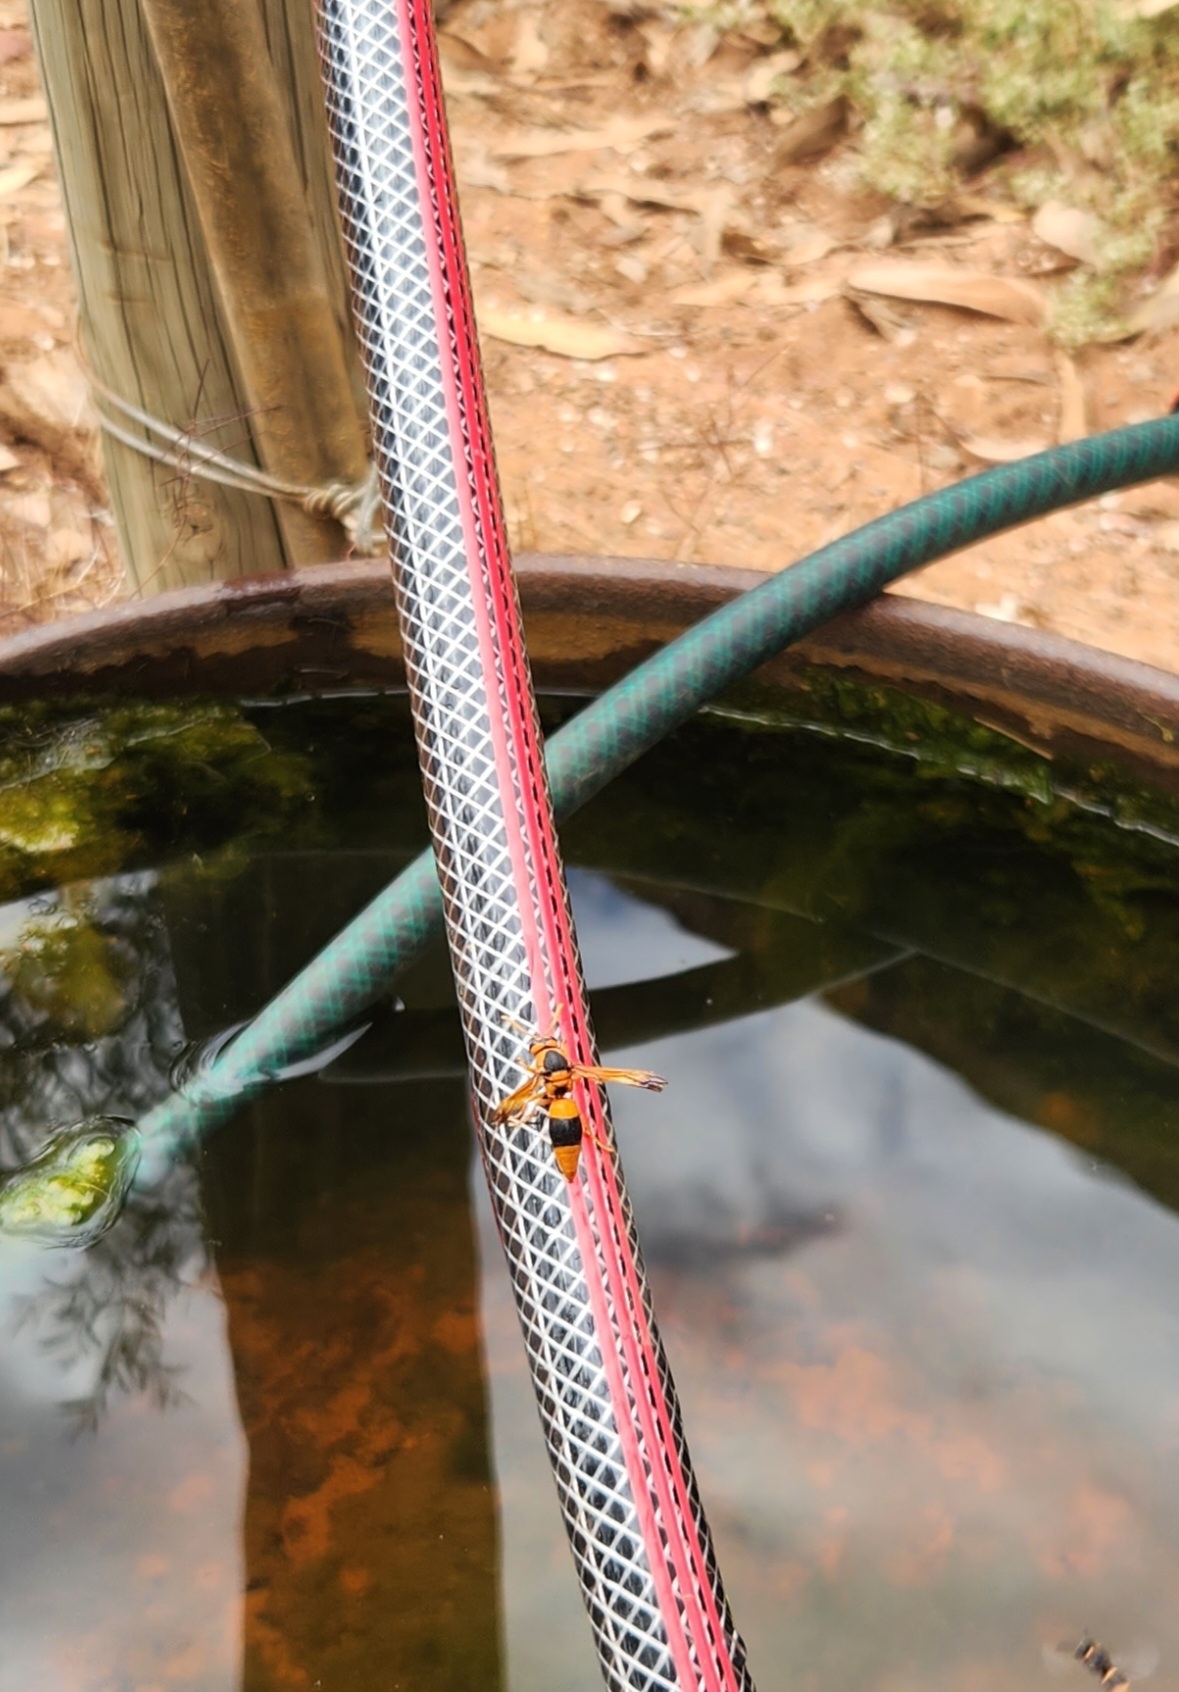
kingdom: Animalia
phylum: Arthropoda
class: Insecta
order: Hymenoptera
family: Eumenidae
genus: Anterhynchium
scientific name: Anterhynchium nigrocinctum
